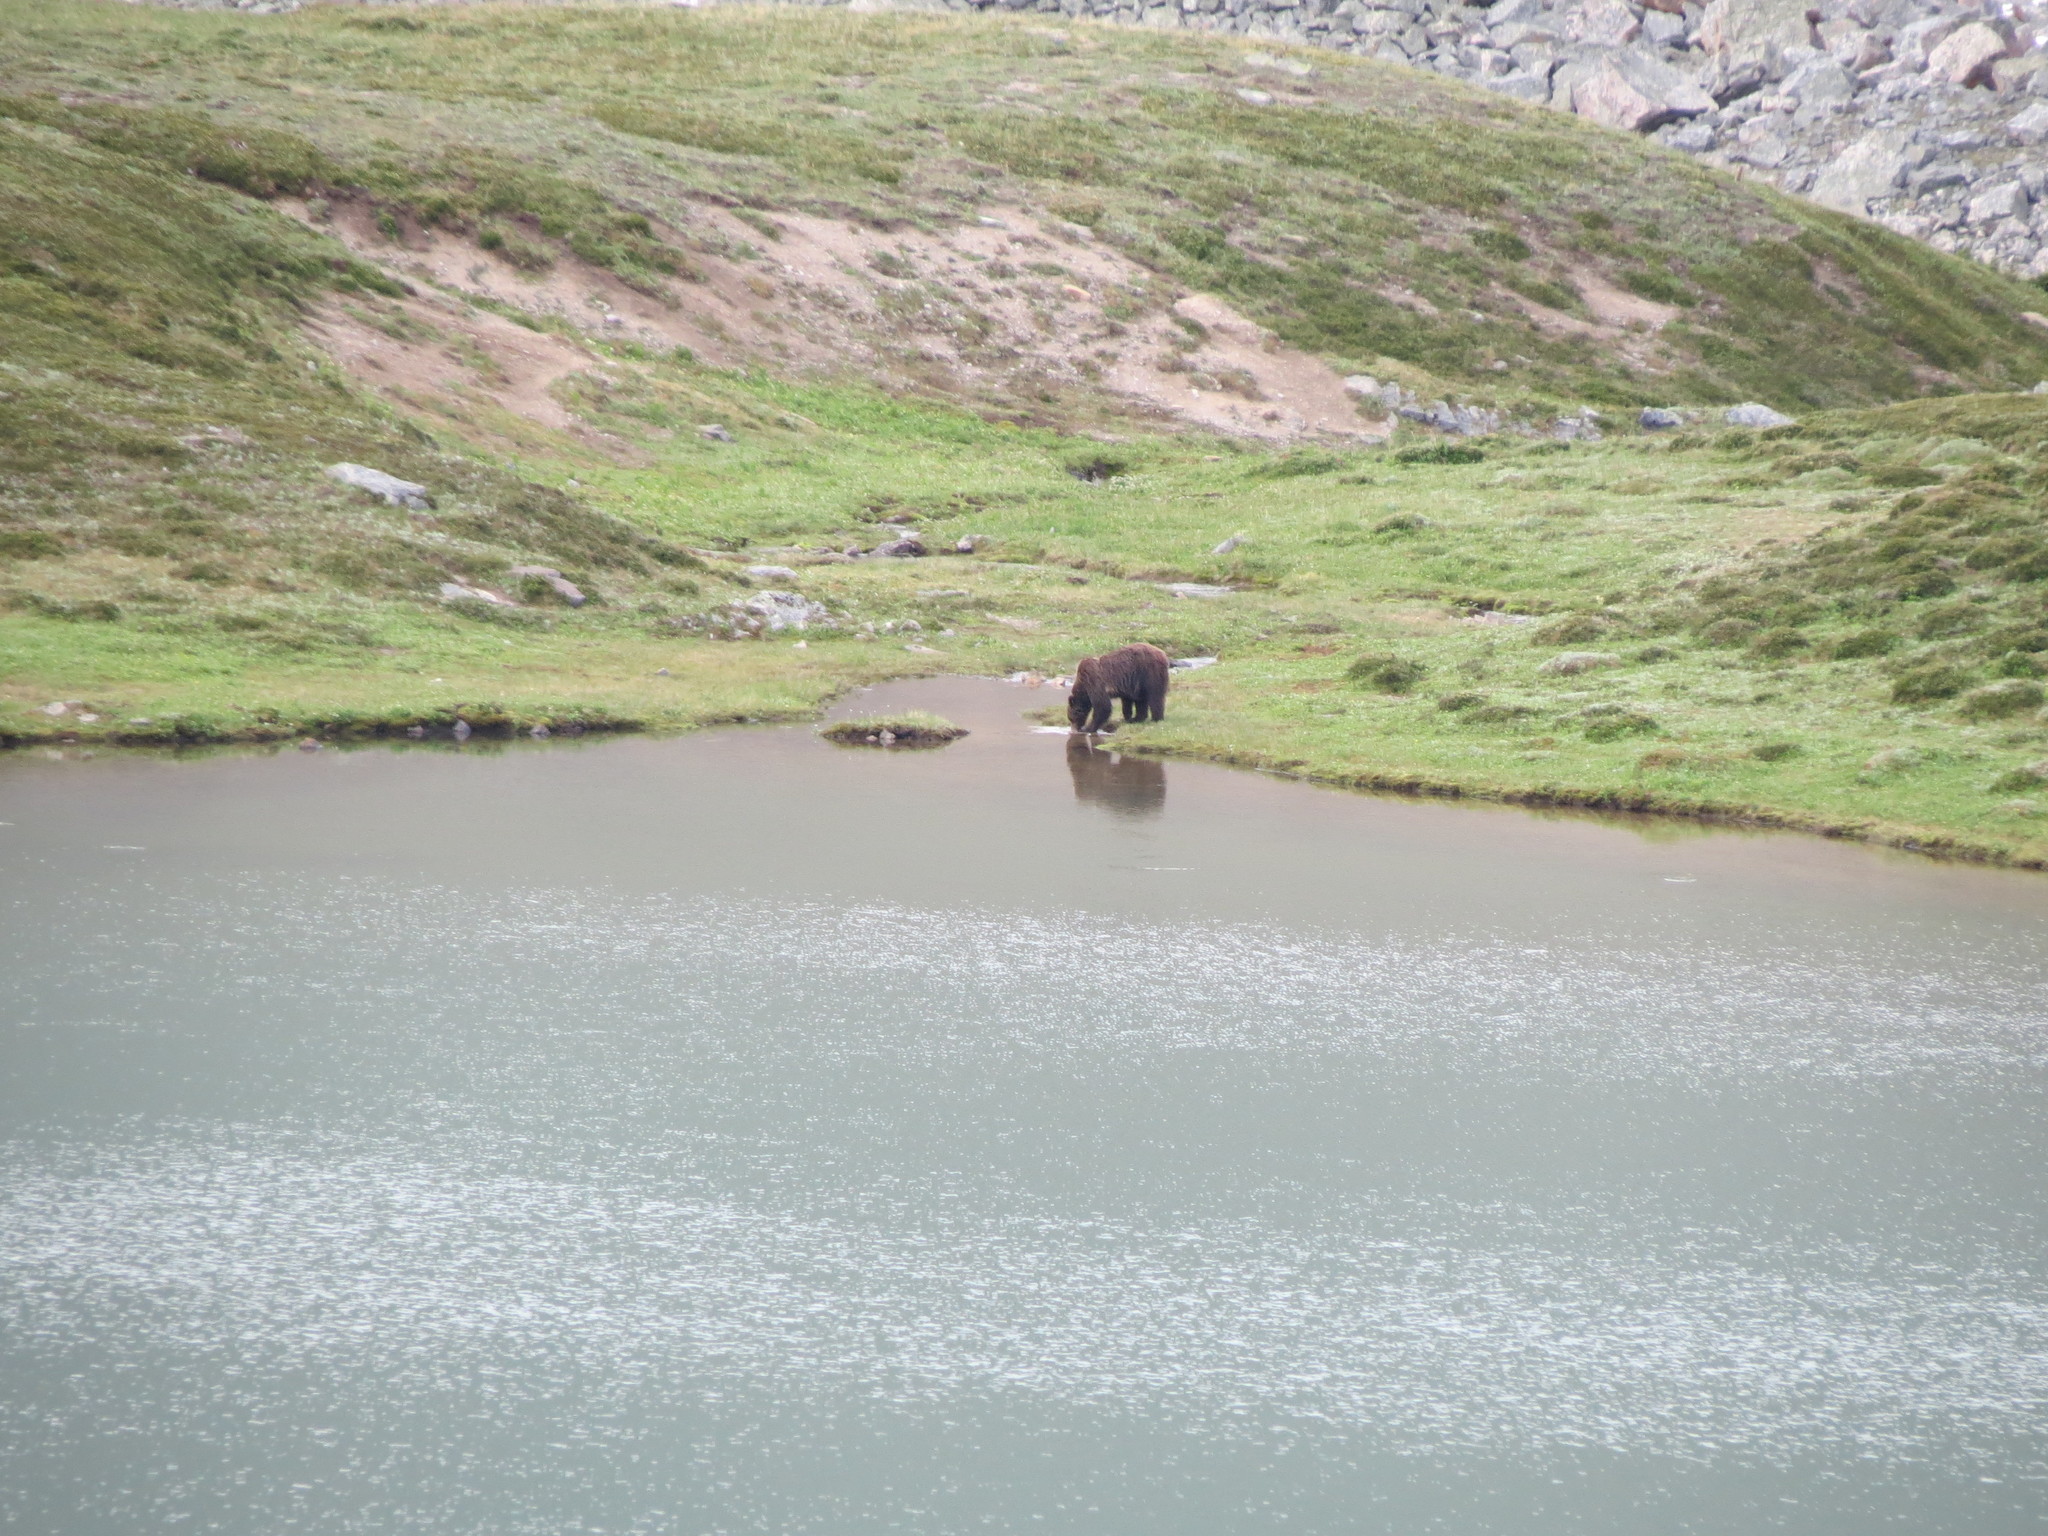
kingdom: Animalia
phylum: Chordata
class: Mammalia
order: Carnivora
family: Ursidae
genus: Ursus
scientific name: Ursus arctos
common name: Brown bear
